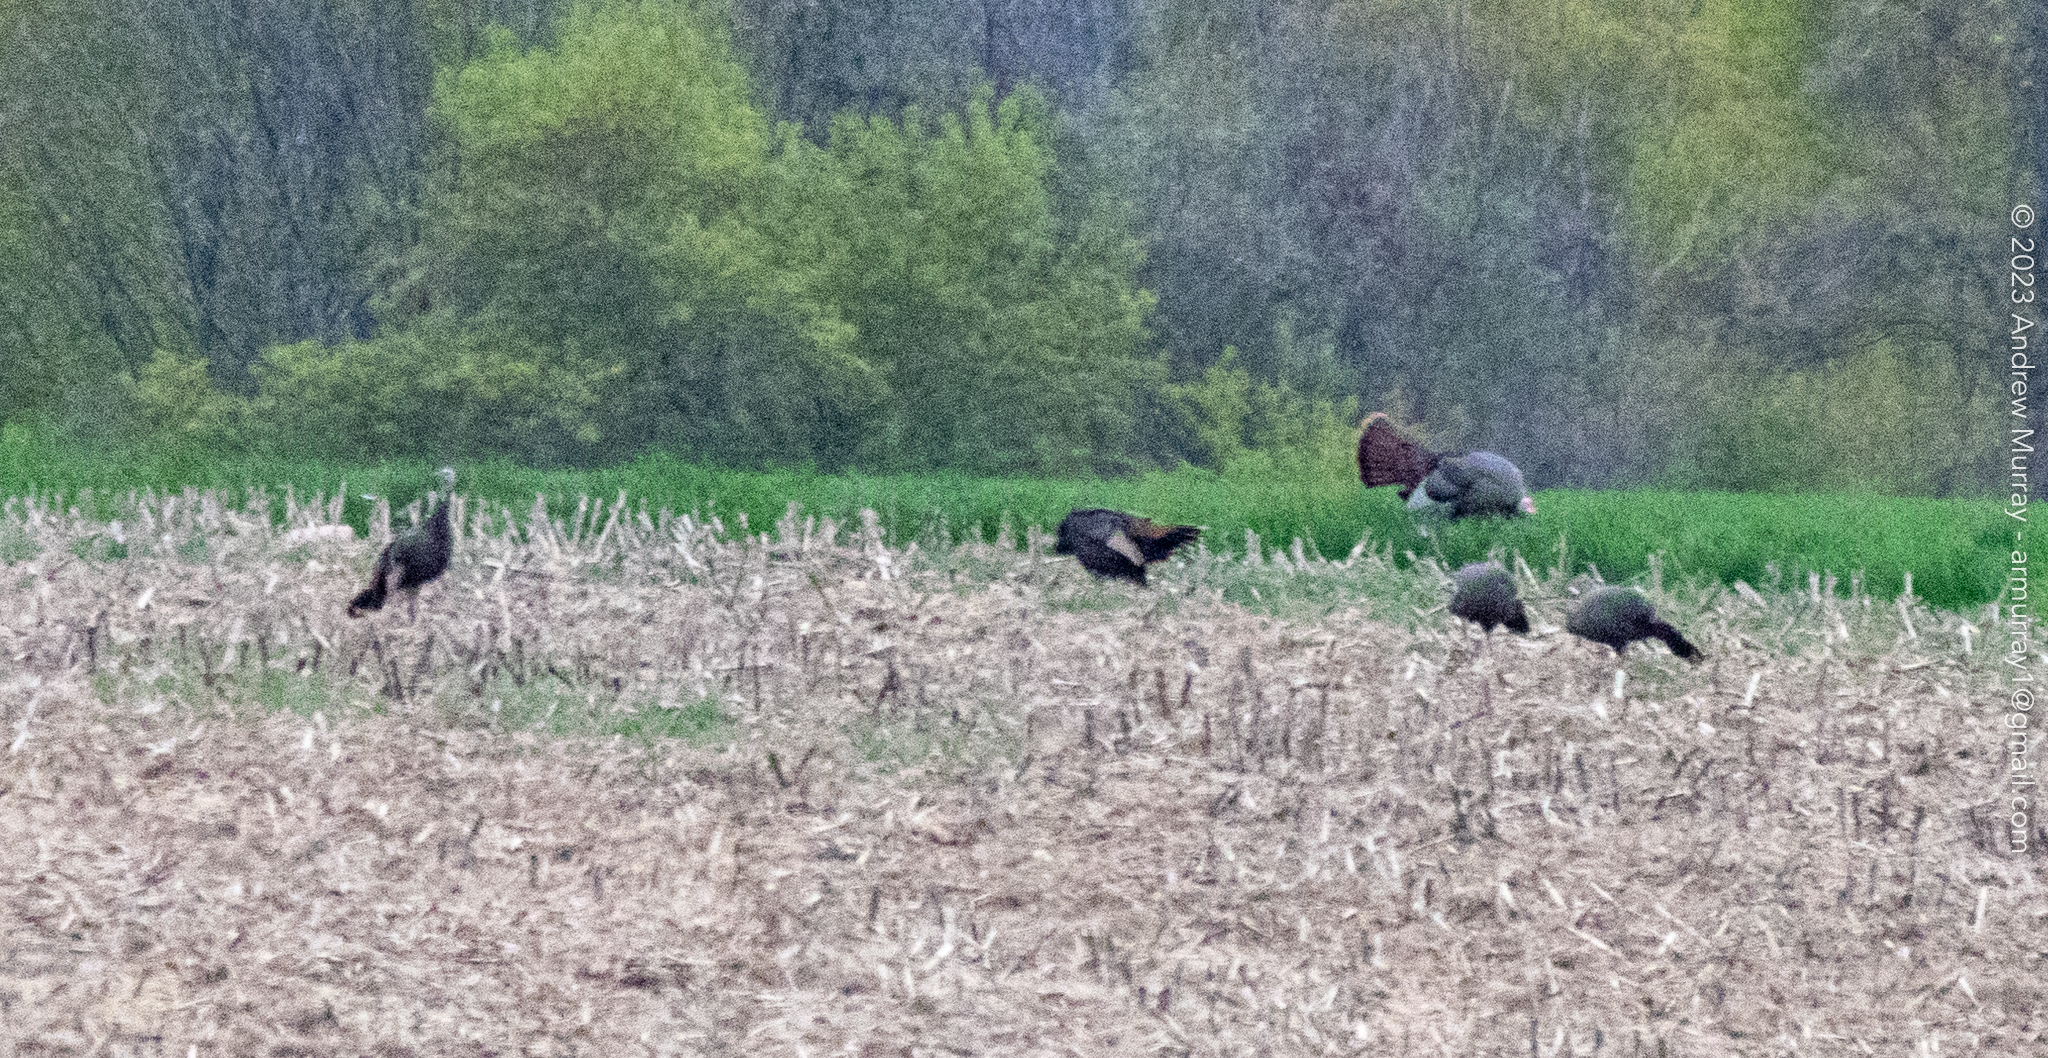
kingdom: Animalia
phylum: Chordata
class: Aves
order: Galliformes
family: Phasianidae
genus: Meleagris
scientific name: Meleagris gallopavo
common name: Wild turkey
